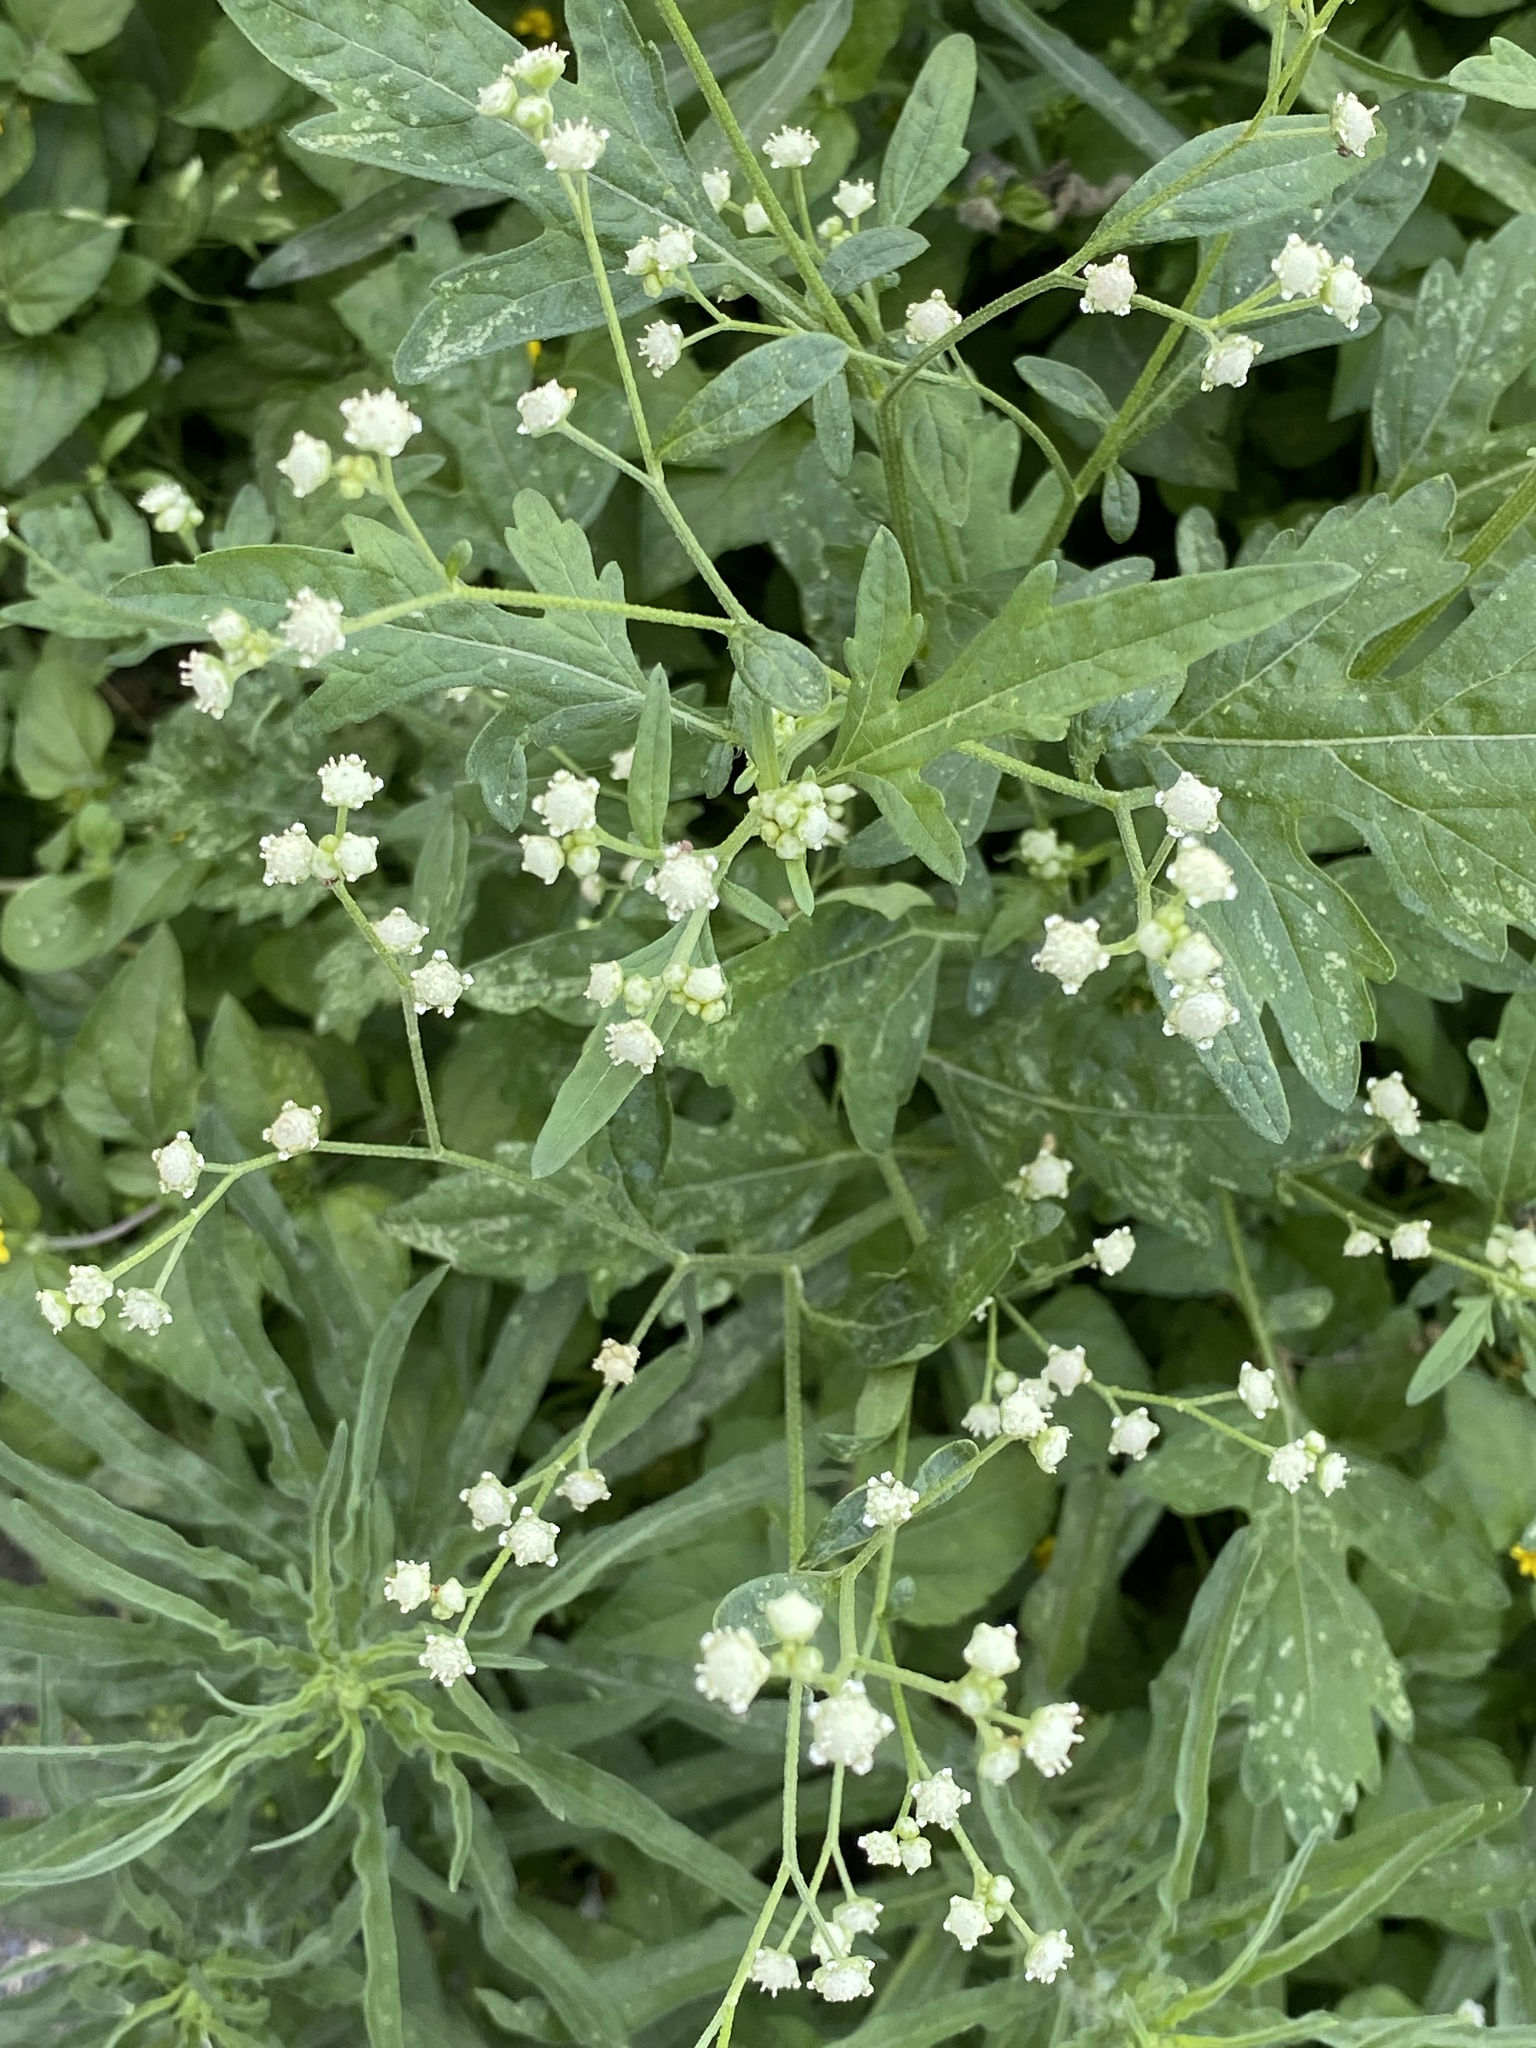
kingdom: Plantae
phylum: Tracheophyta
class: Magnoliopsida
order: Asterales
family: Asteraceae
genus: Parthenium
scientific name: Parthenium hysterophorus
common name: Santa maria feverfew
